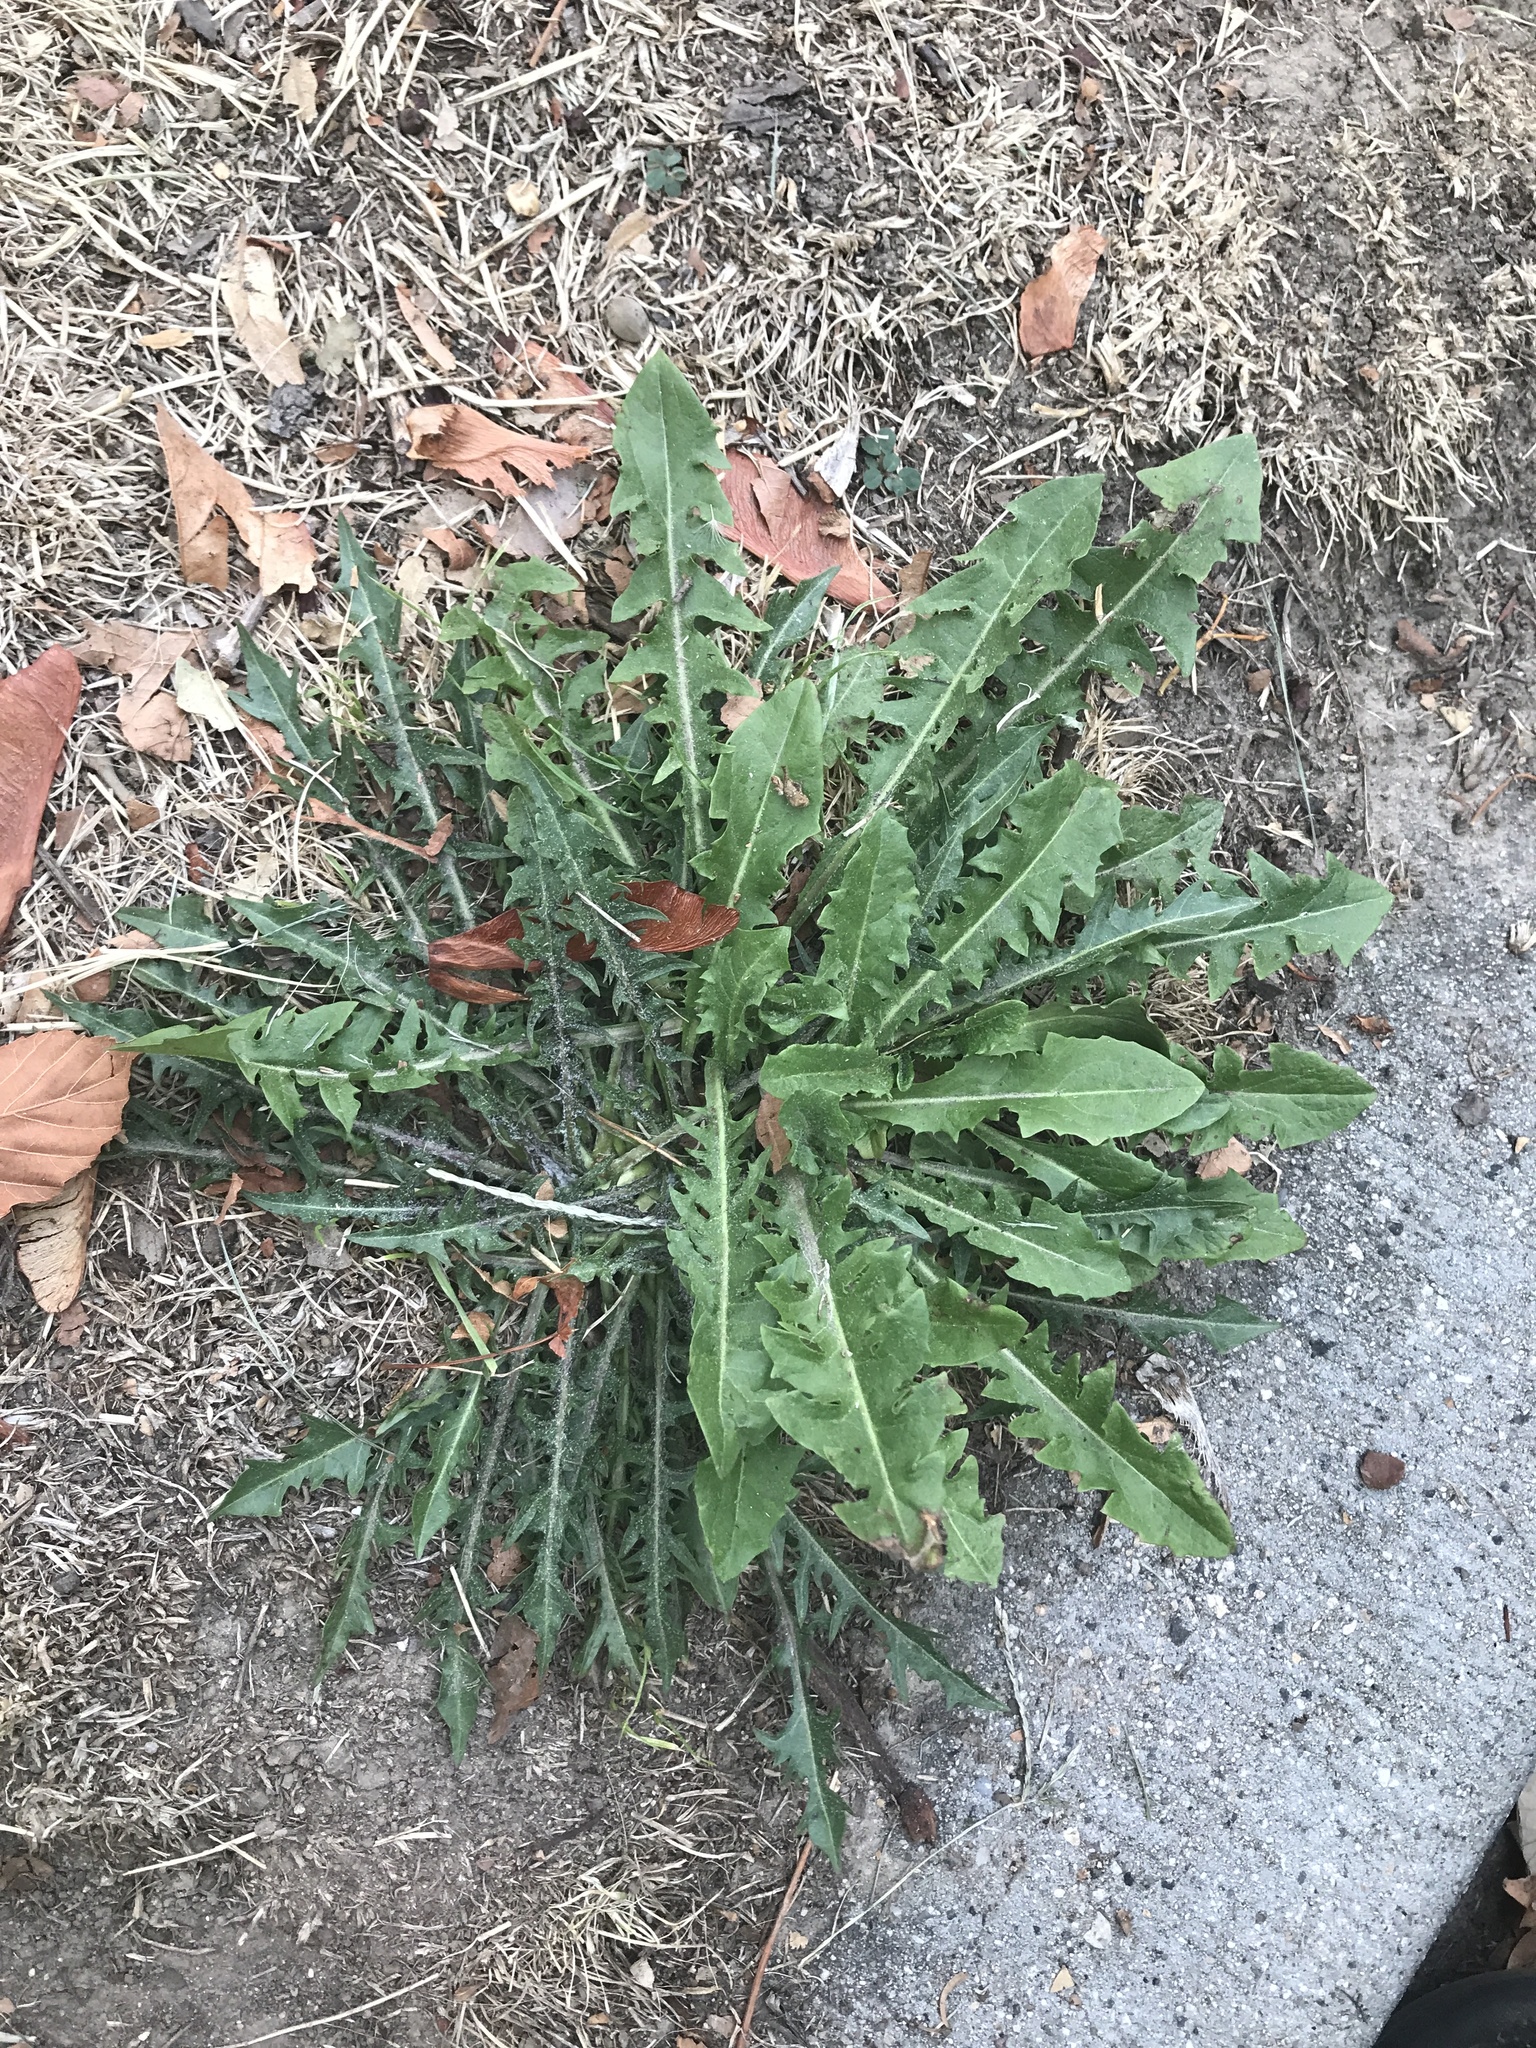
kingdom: Plantae
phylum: Tracheophyta
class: Magnoliopsida
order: Asterales
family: Asteraceae
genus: Taraxacum
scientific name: Taraxacum officinale
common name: Common dandelion
